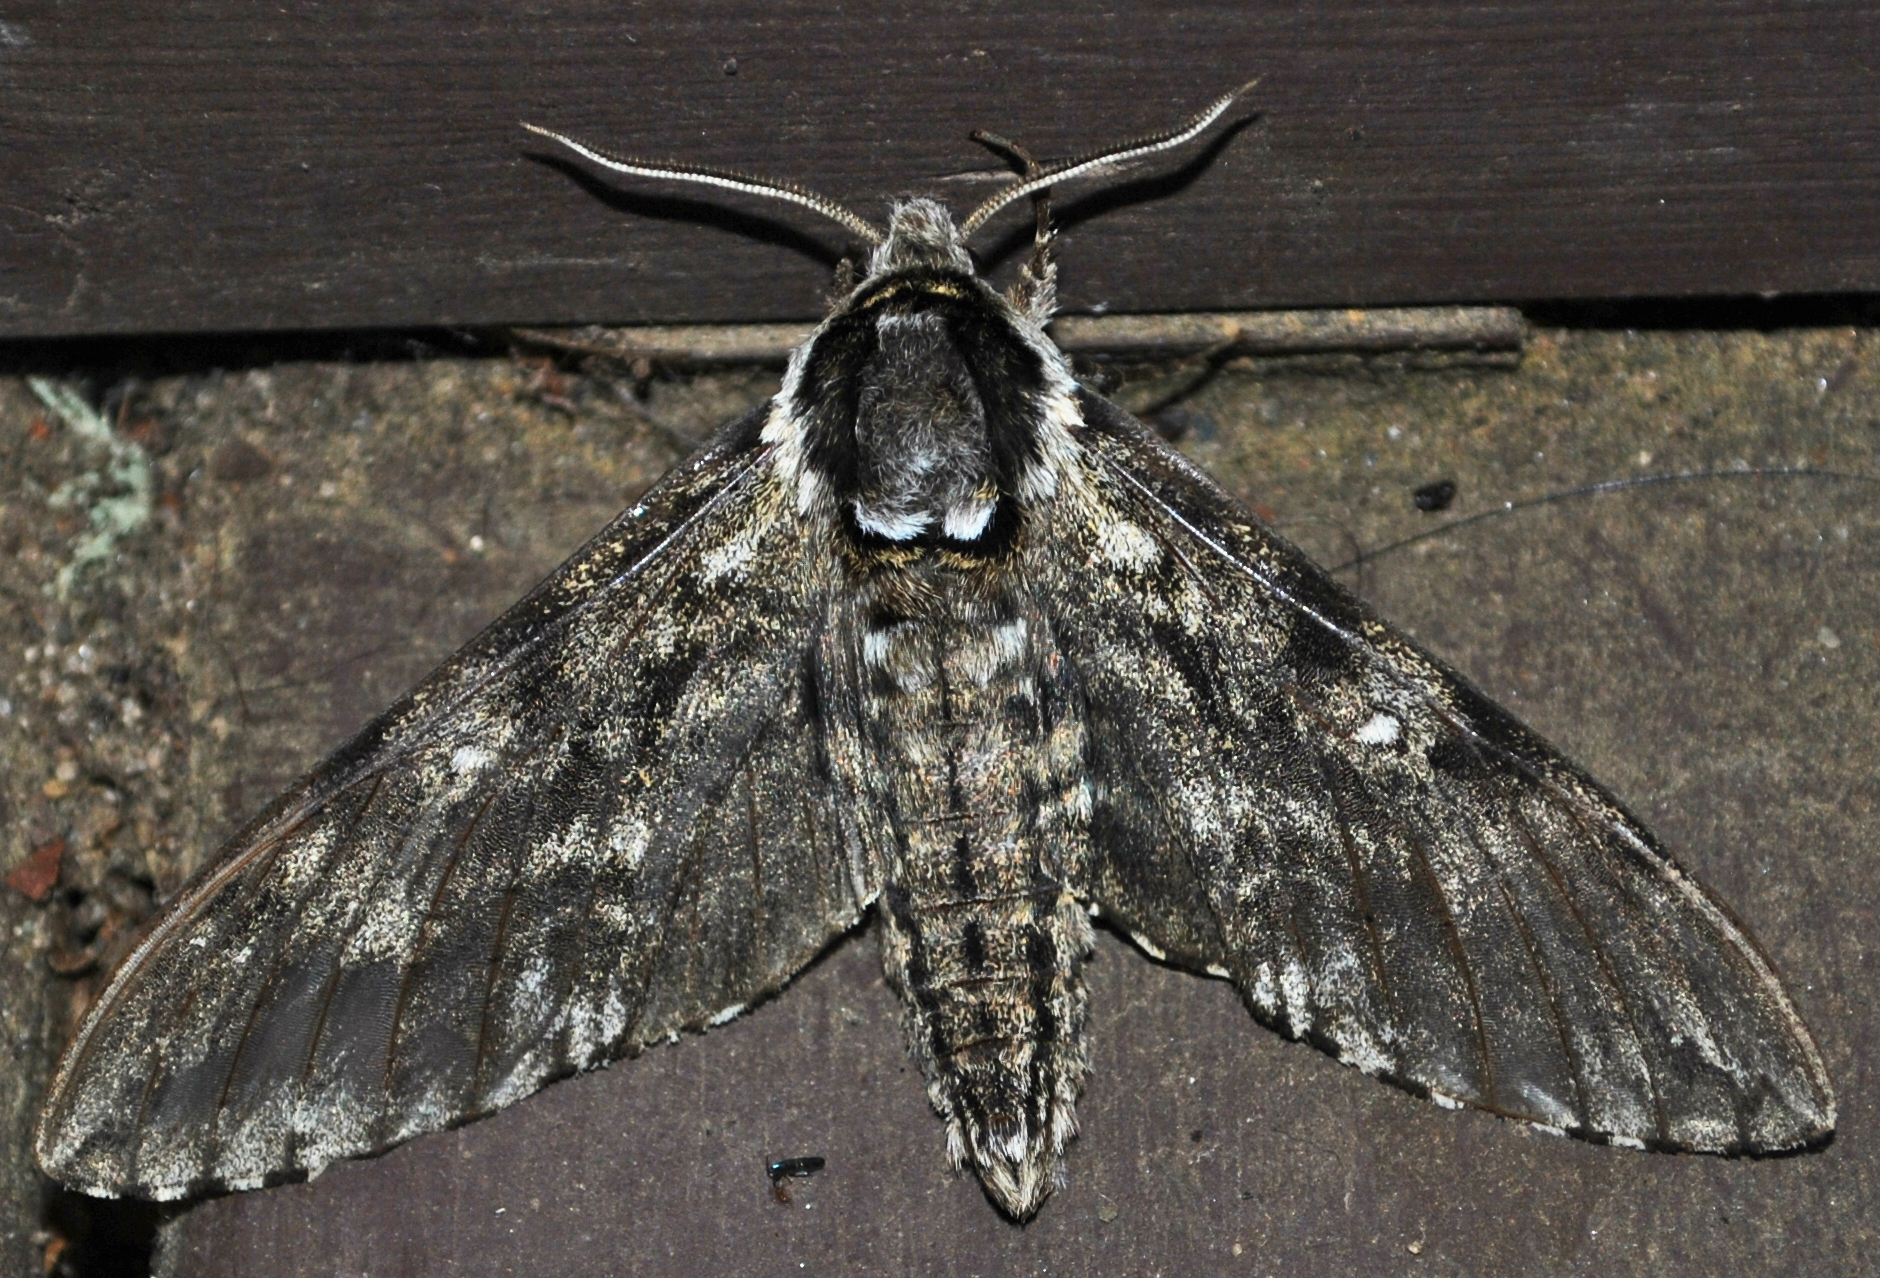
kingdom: Animalia
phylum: Arthropoda
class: Insecta
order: Lepidoptera
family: Sphingidae
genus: Ceratomia
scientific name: Ceratomia undulosa
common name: Waved sphinx
